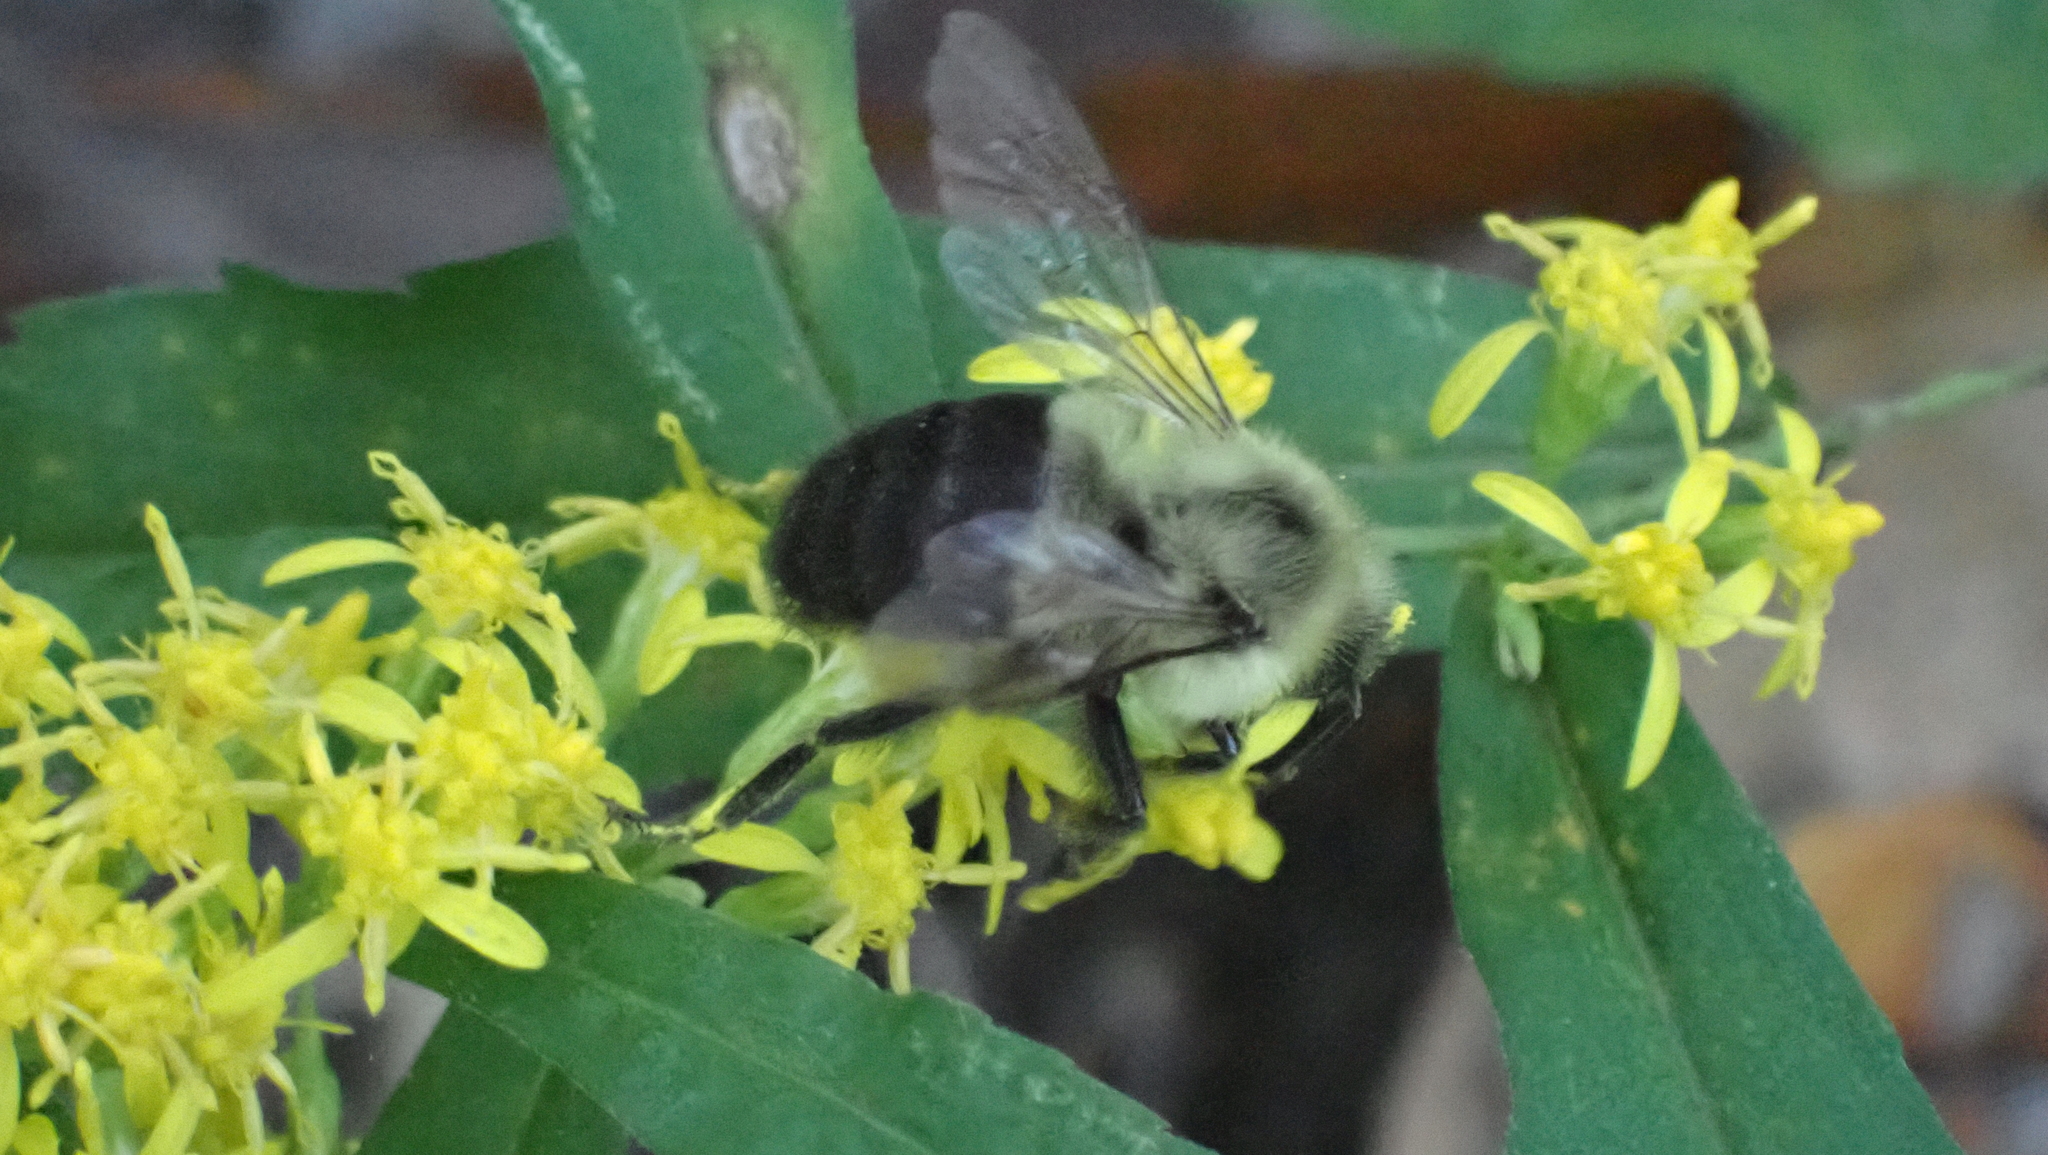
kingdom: Animalia
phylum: Arthropoda
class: Insecta
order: Hymenoptera
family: Apidae
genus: Bombus
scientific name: Bombus impatiens
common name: Common eastern bumble bee
